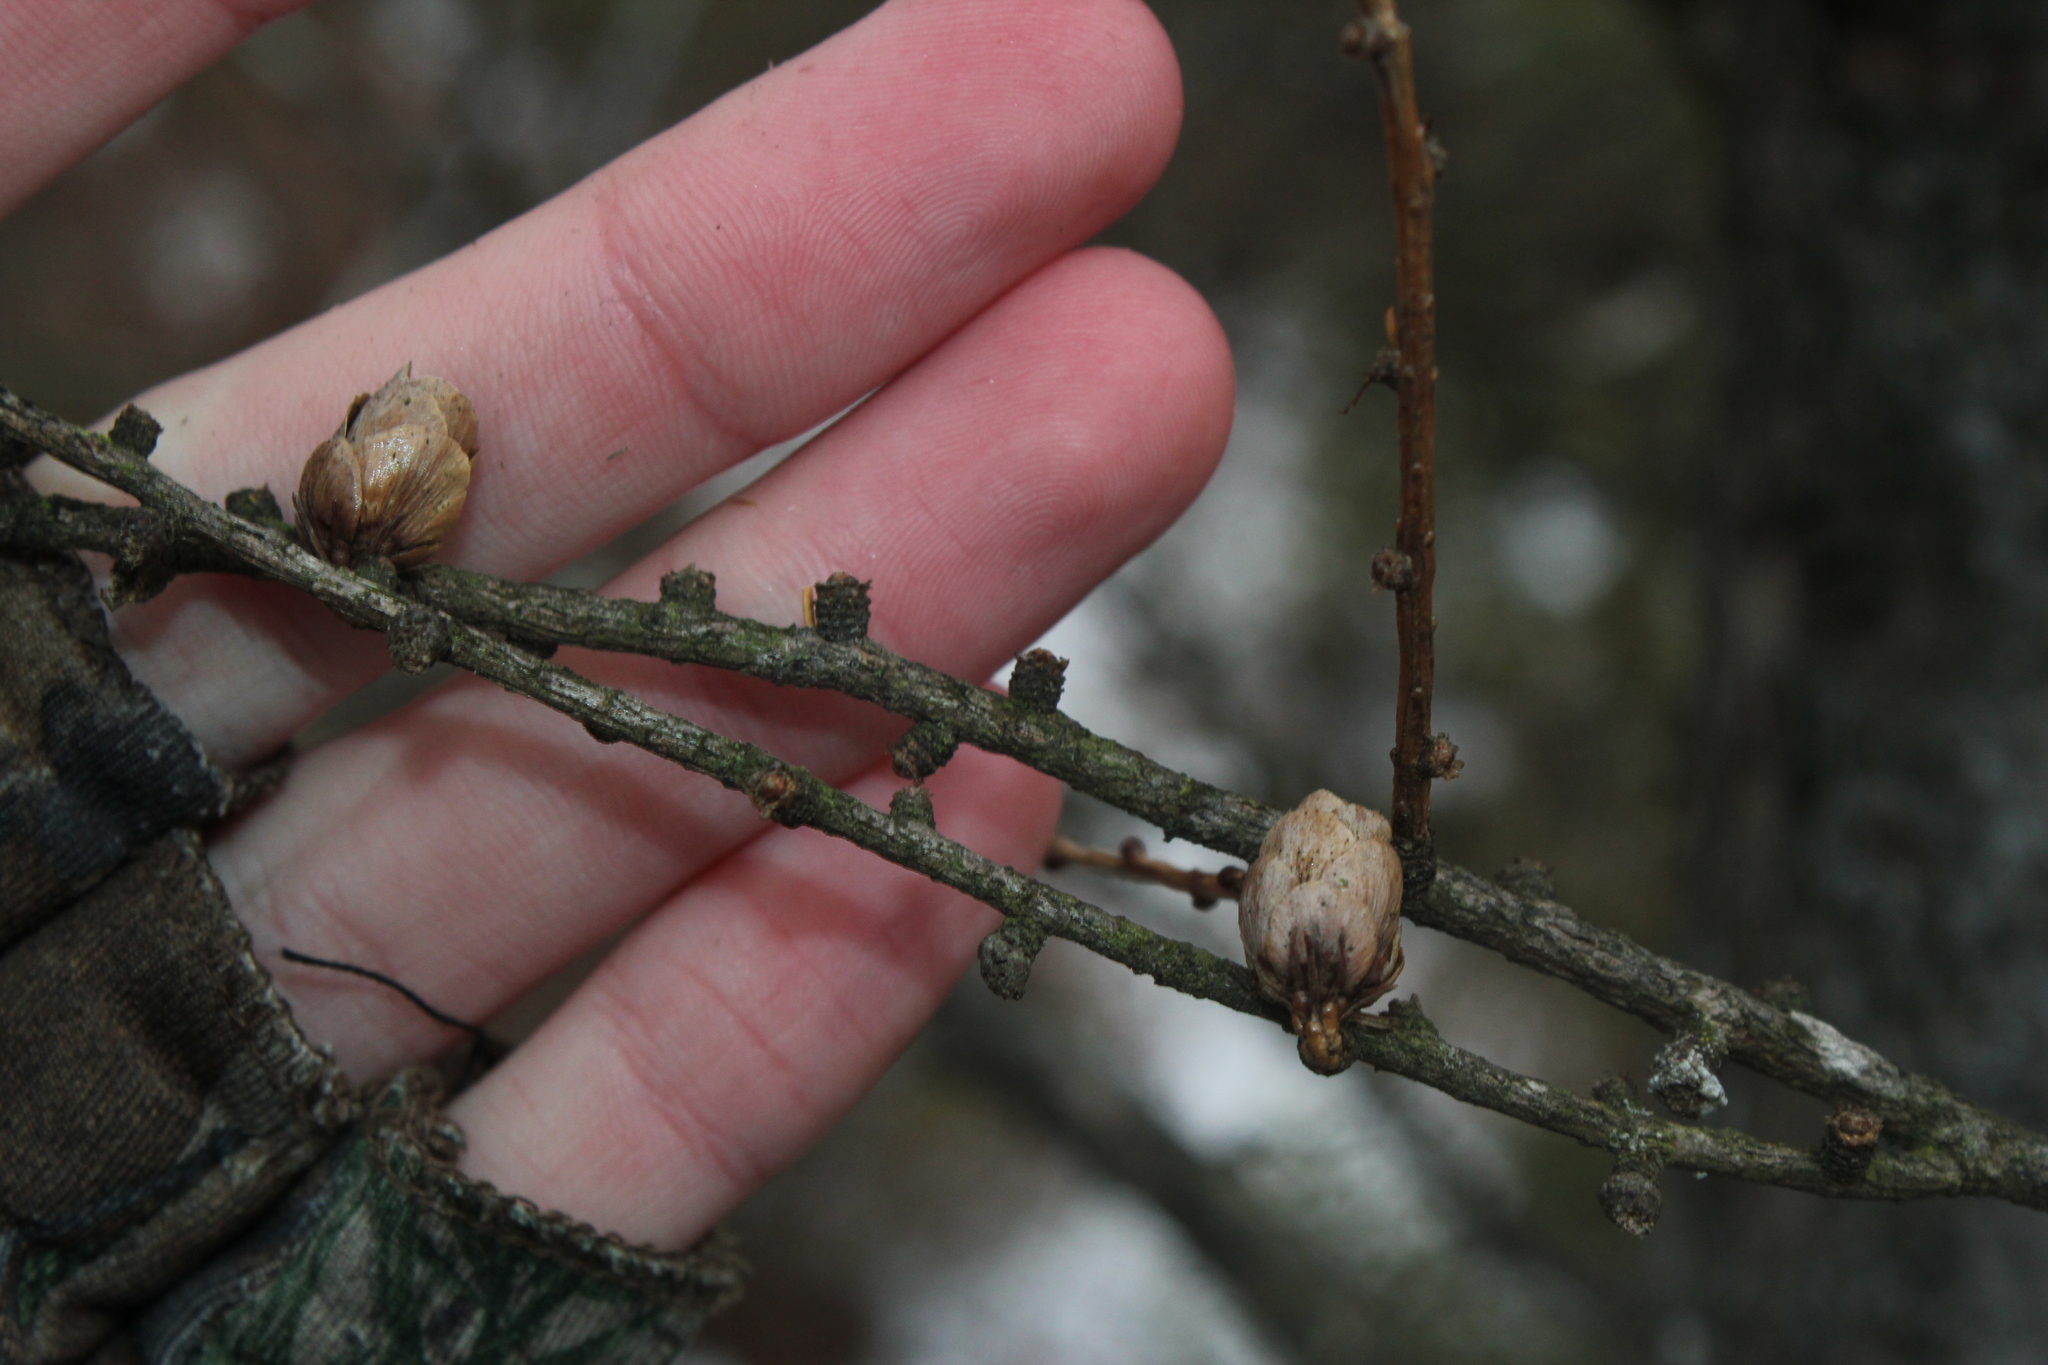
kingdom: Plantae
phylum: Tracheophyta
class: Pinopsida
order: Pinales
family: Pinaceae
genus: Larix
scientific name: Larix laricina
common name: American larch
